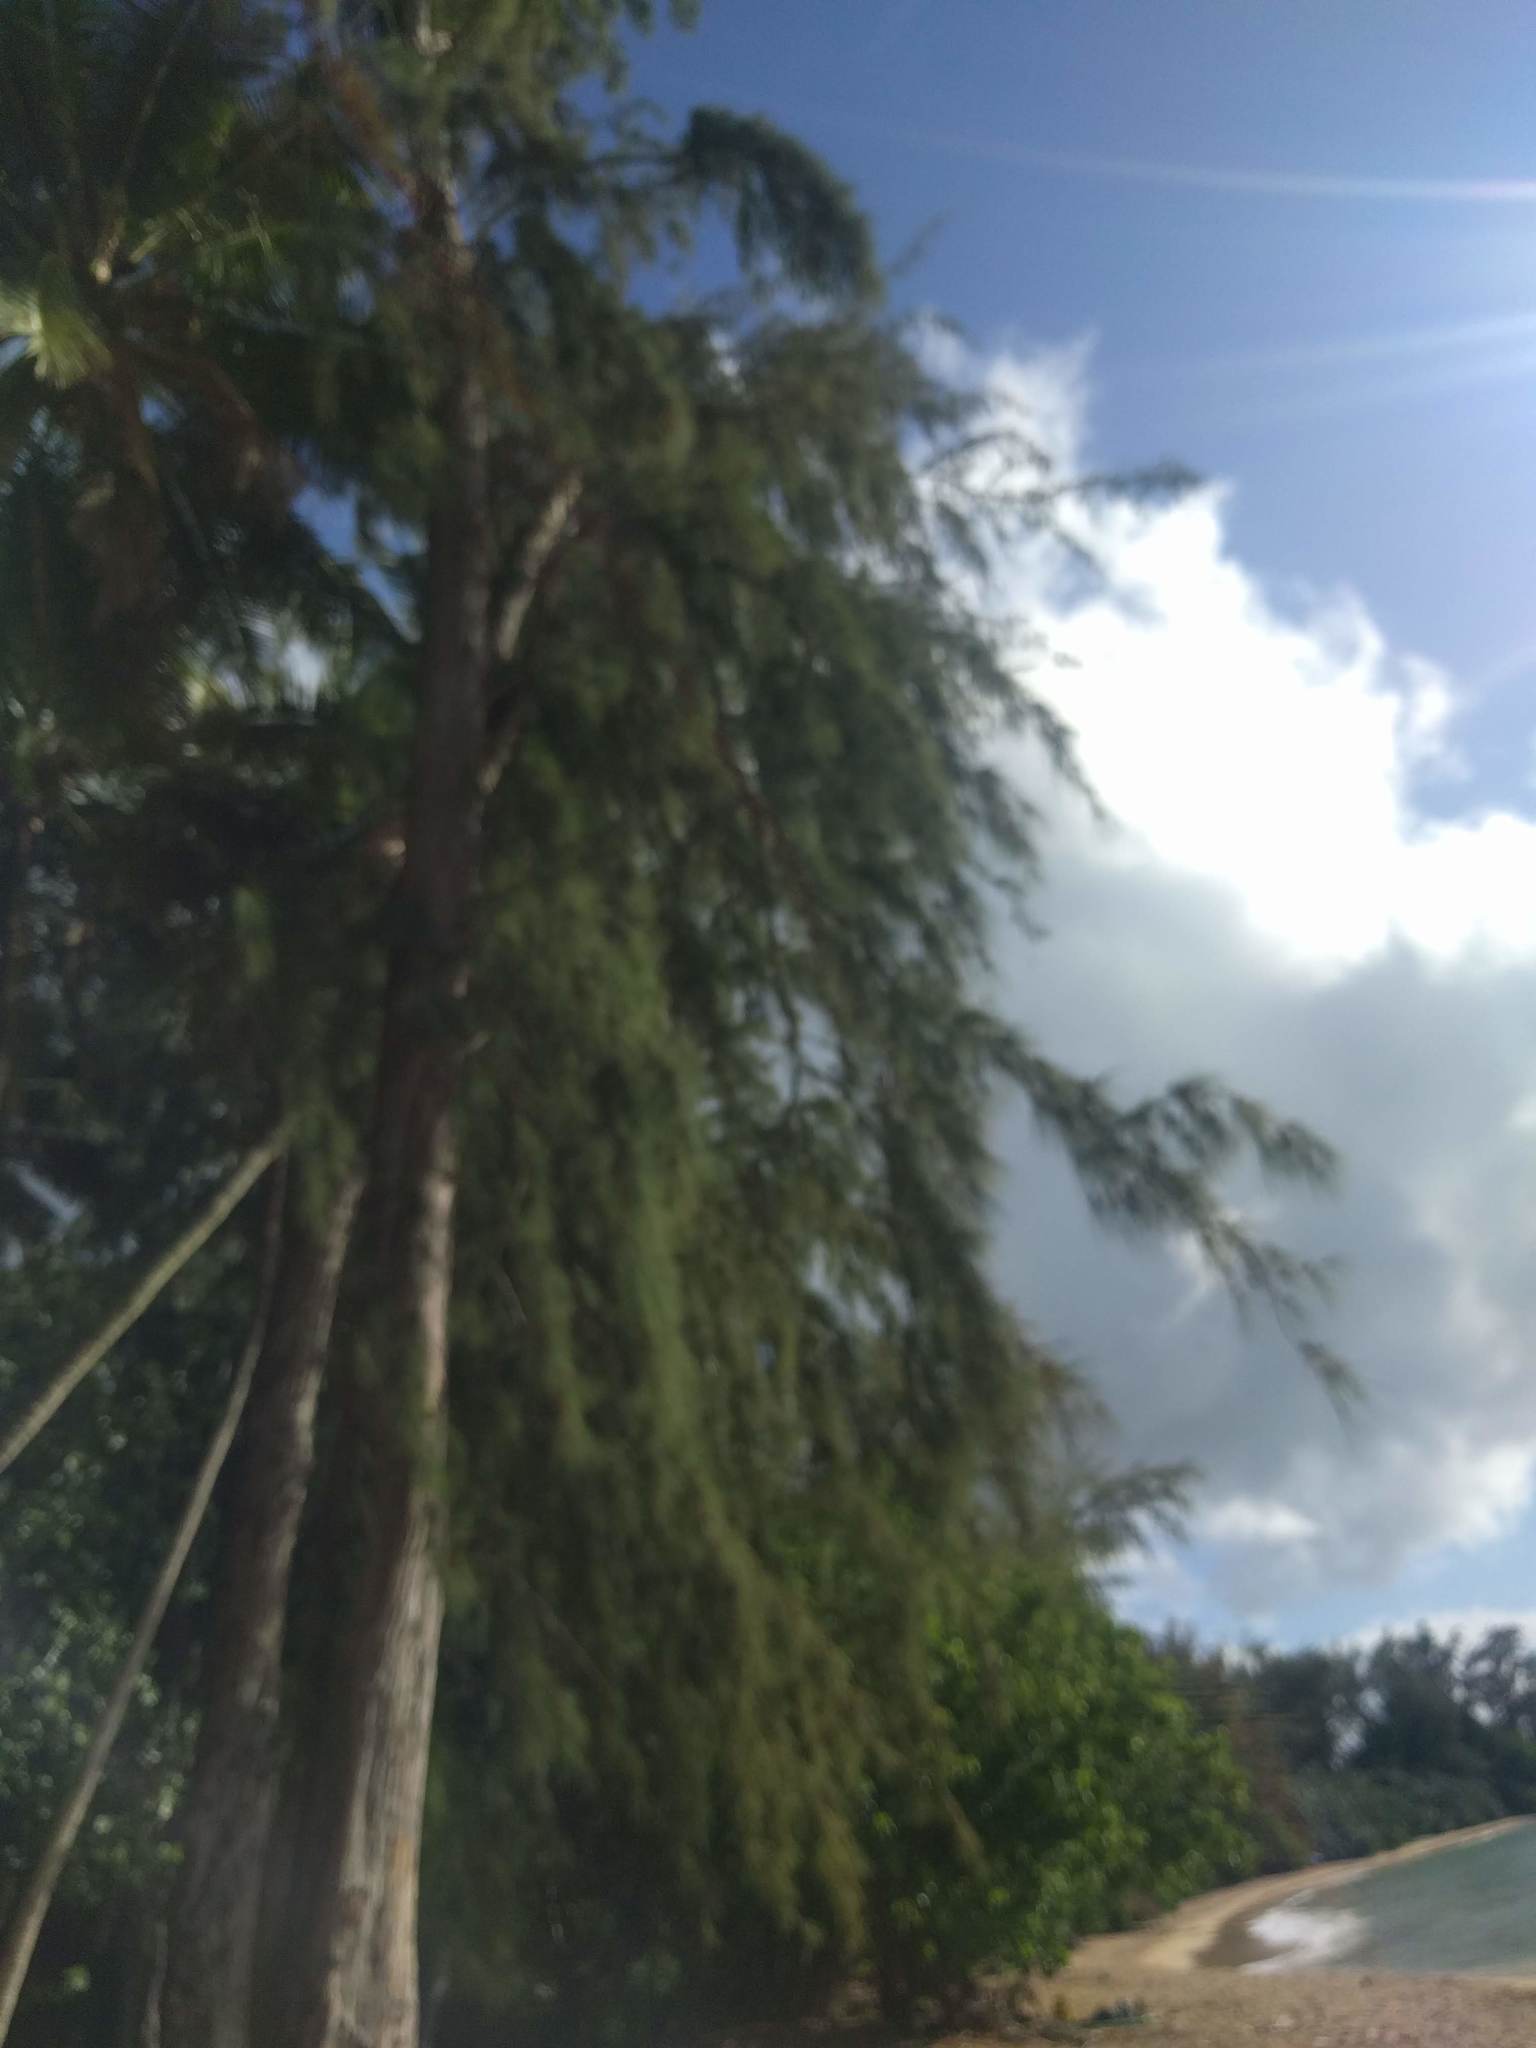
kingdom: Plantae
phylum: Tracheophyta
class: Magnoliopsida
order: Fagales
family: Casuarinaceae
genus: Casuarina
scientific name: Casuarina equisetifolia
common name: Beach sheoak
